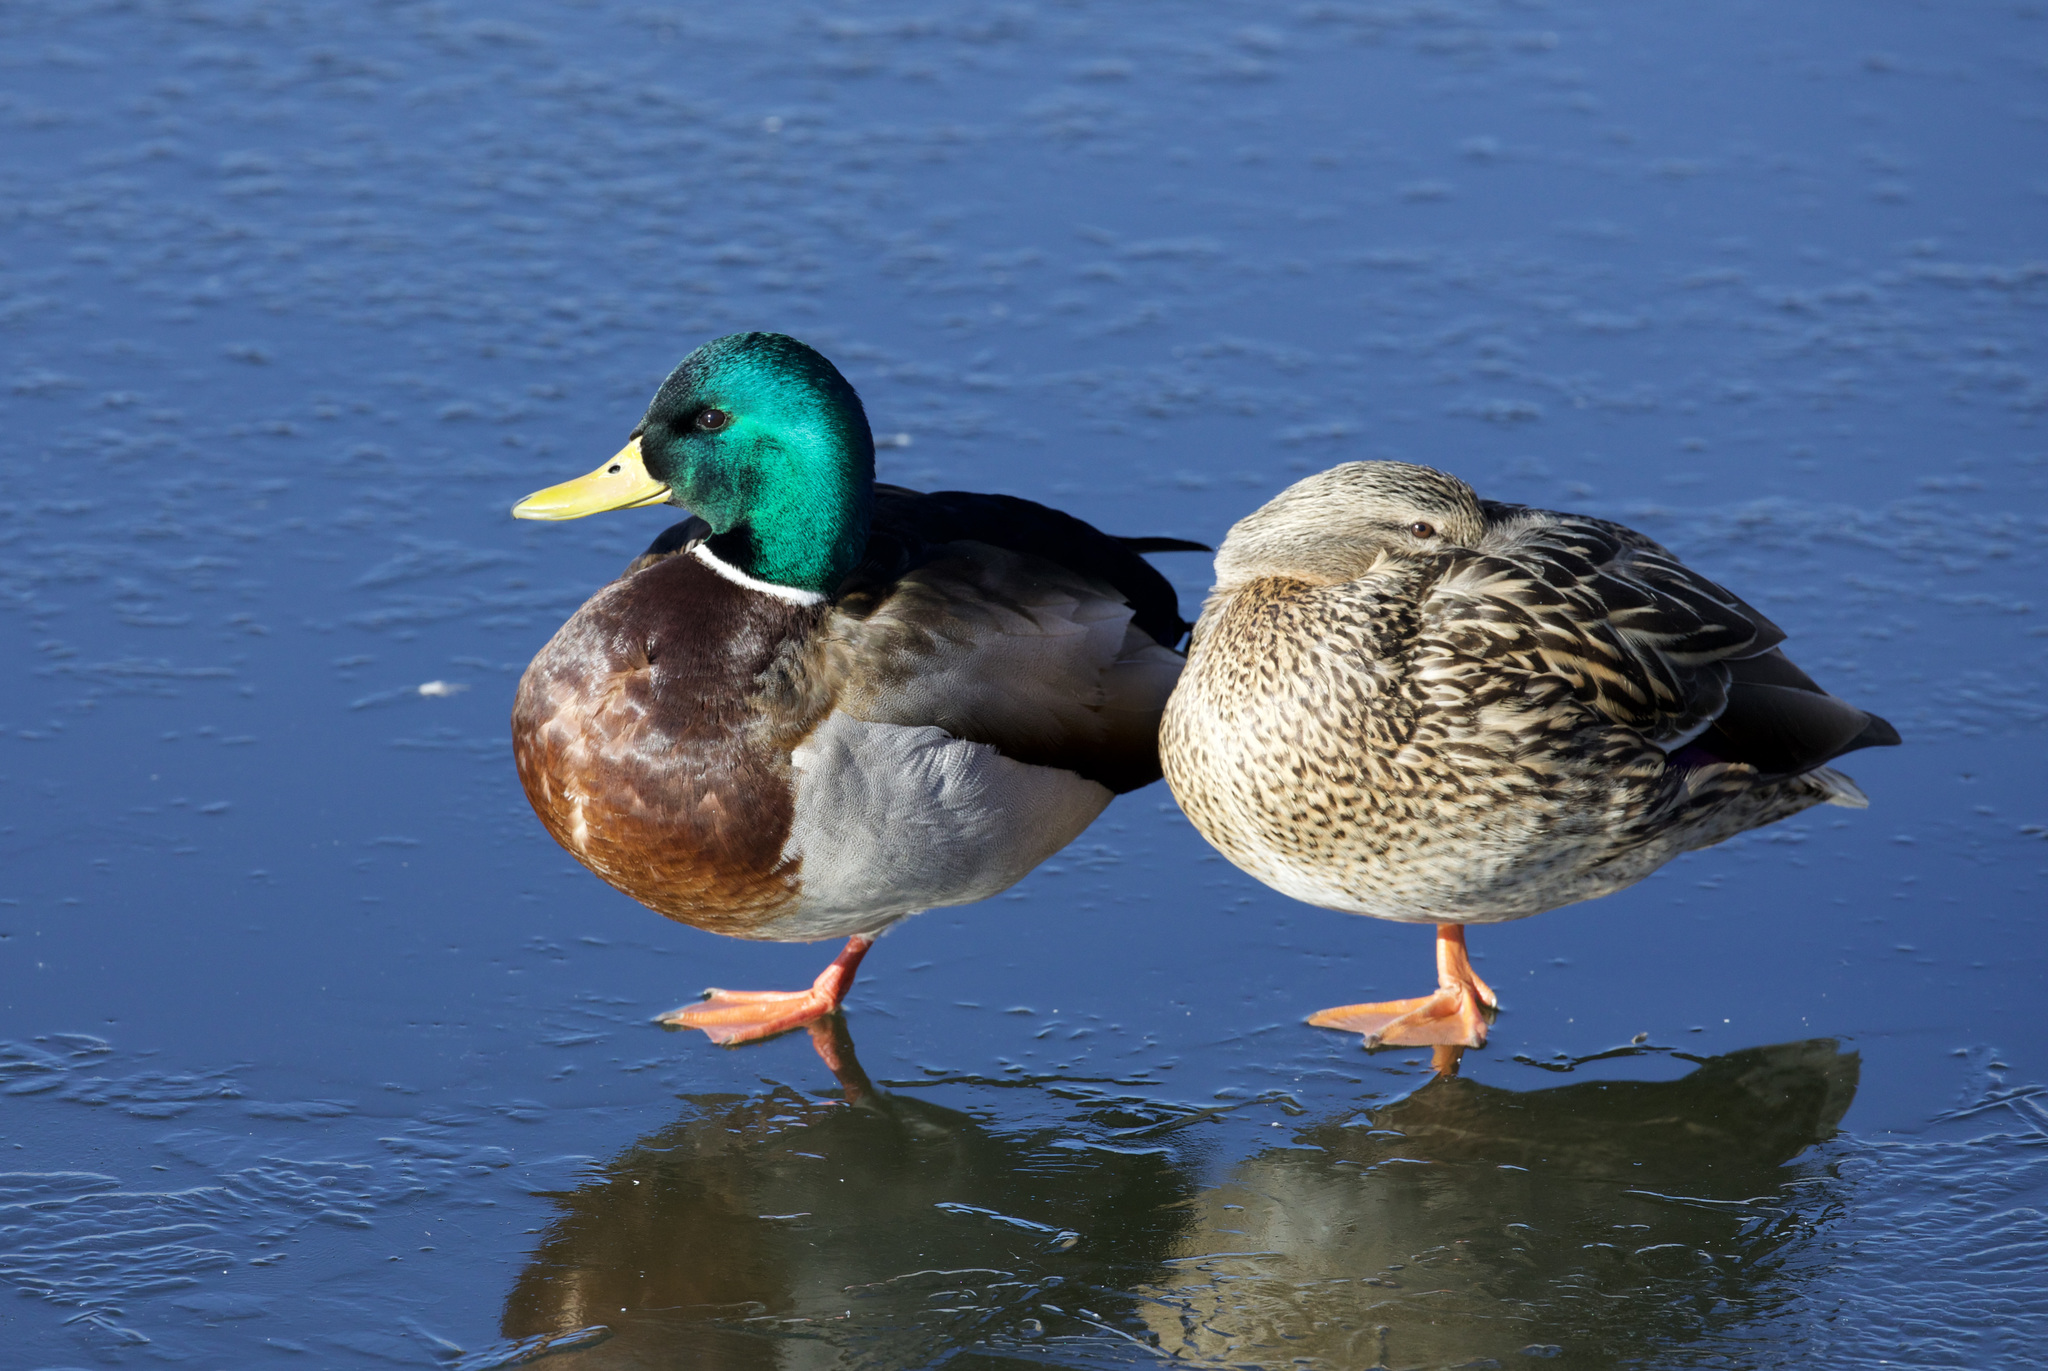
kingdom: Animalia
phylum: Chordata
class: Aves
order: Anseriformes
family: Anatidae
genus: Anas
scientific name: Anas platyrhynchos
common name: Mallard
